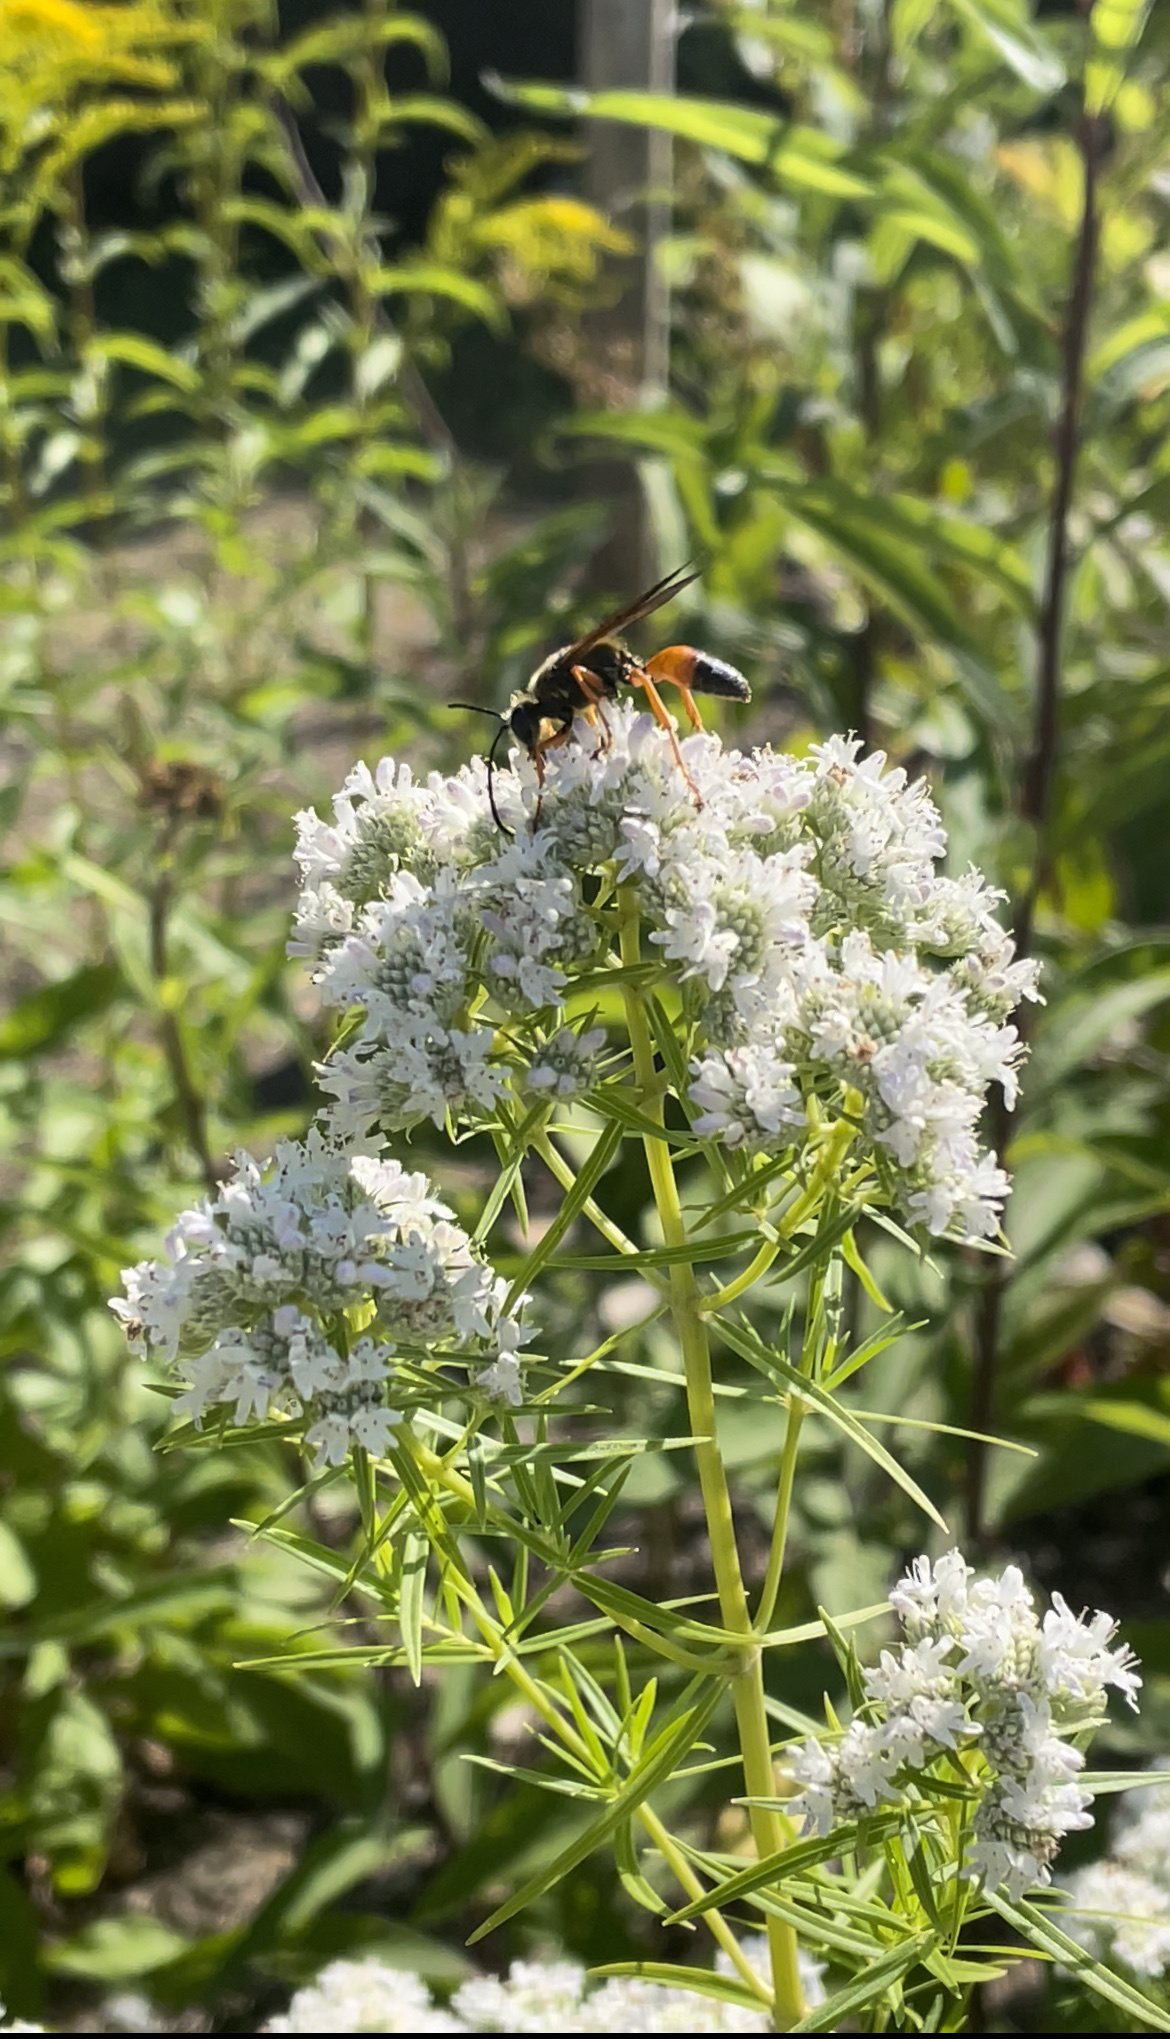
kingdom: Animalia
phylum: Arthropoda
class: Insecta
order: Hymenoptera
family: Sphecidae
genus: Sphex
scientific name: Sphex ichneumoneus
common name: Great golden digger wasp
